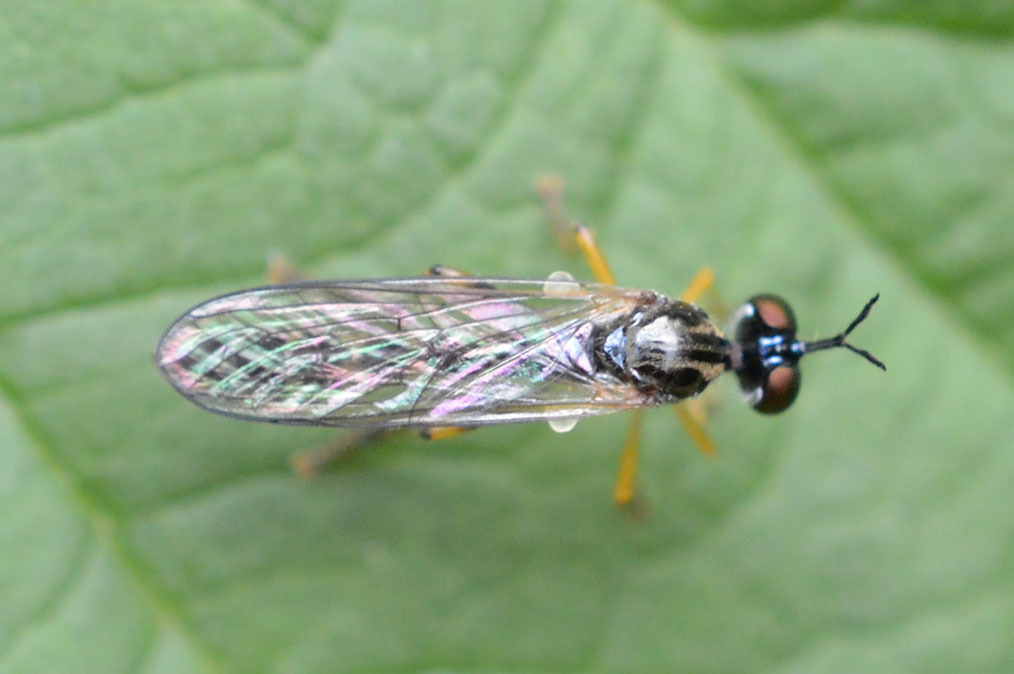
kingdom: Animalia
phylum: Arthropoda
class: Insecta
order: Diptera
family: Asilidae
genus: Dioctria
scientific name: Dioctria linearis
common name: Small yellow-legged robberfly
